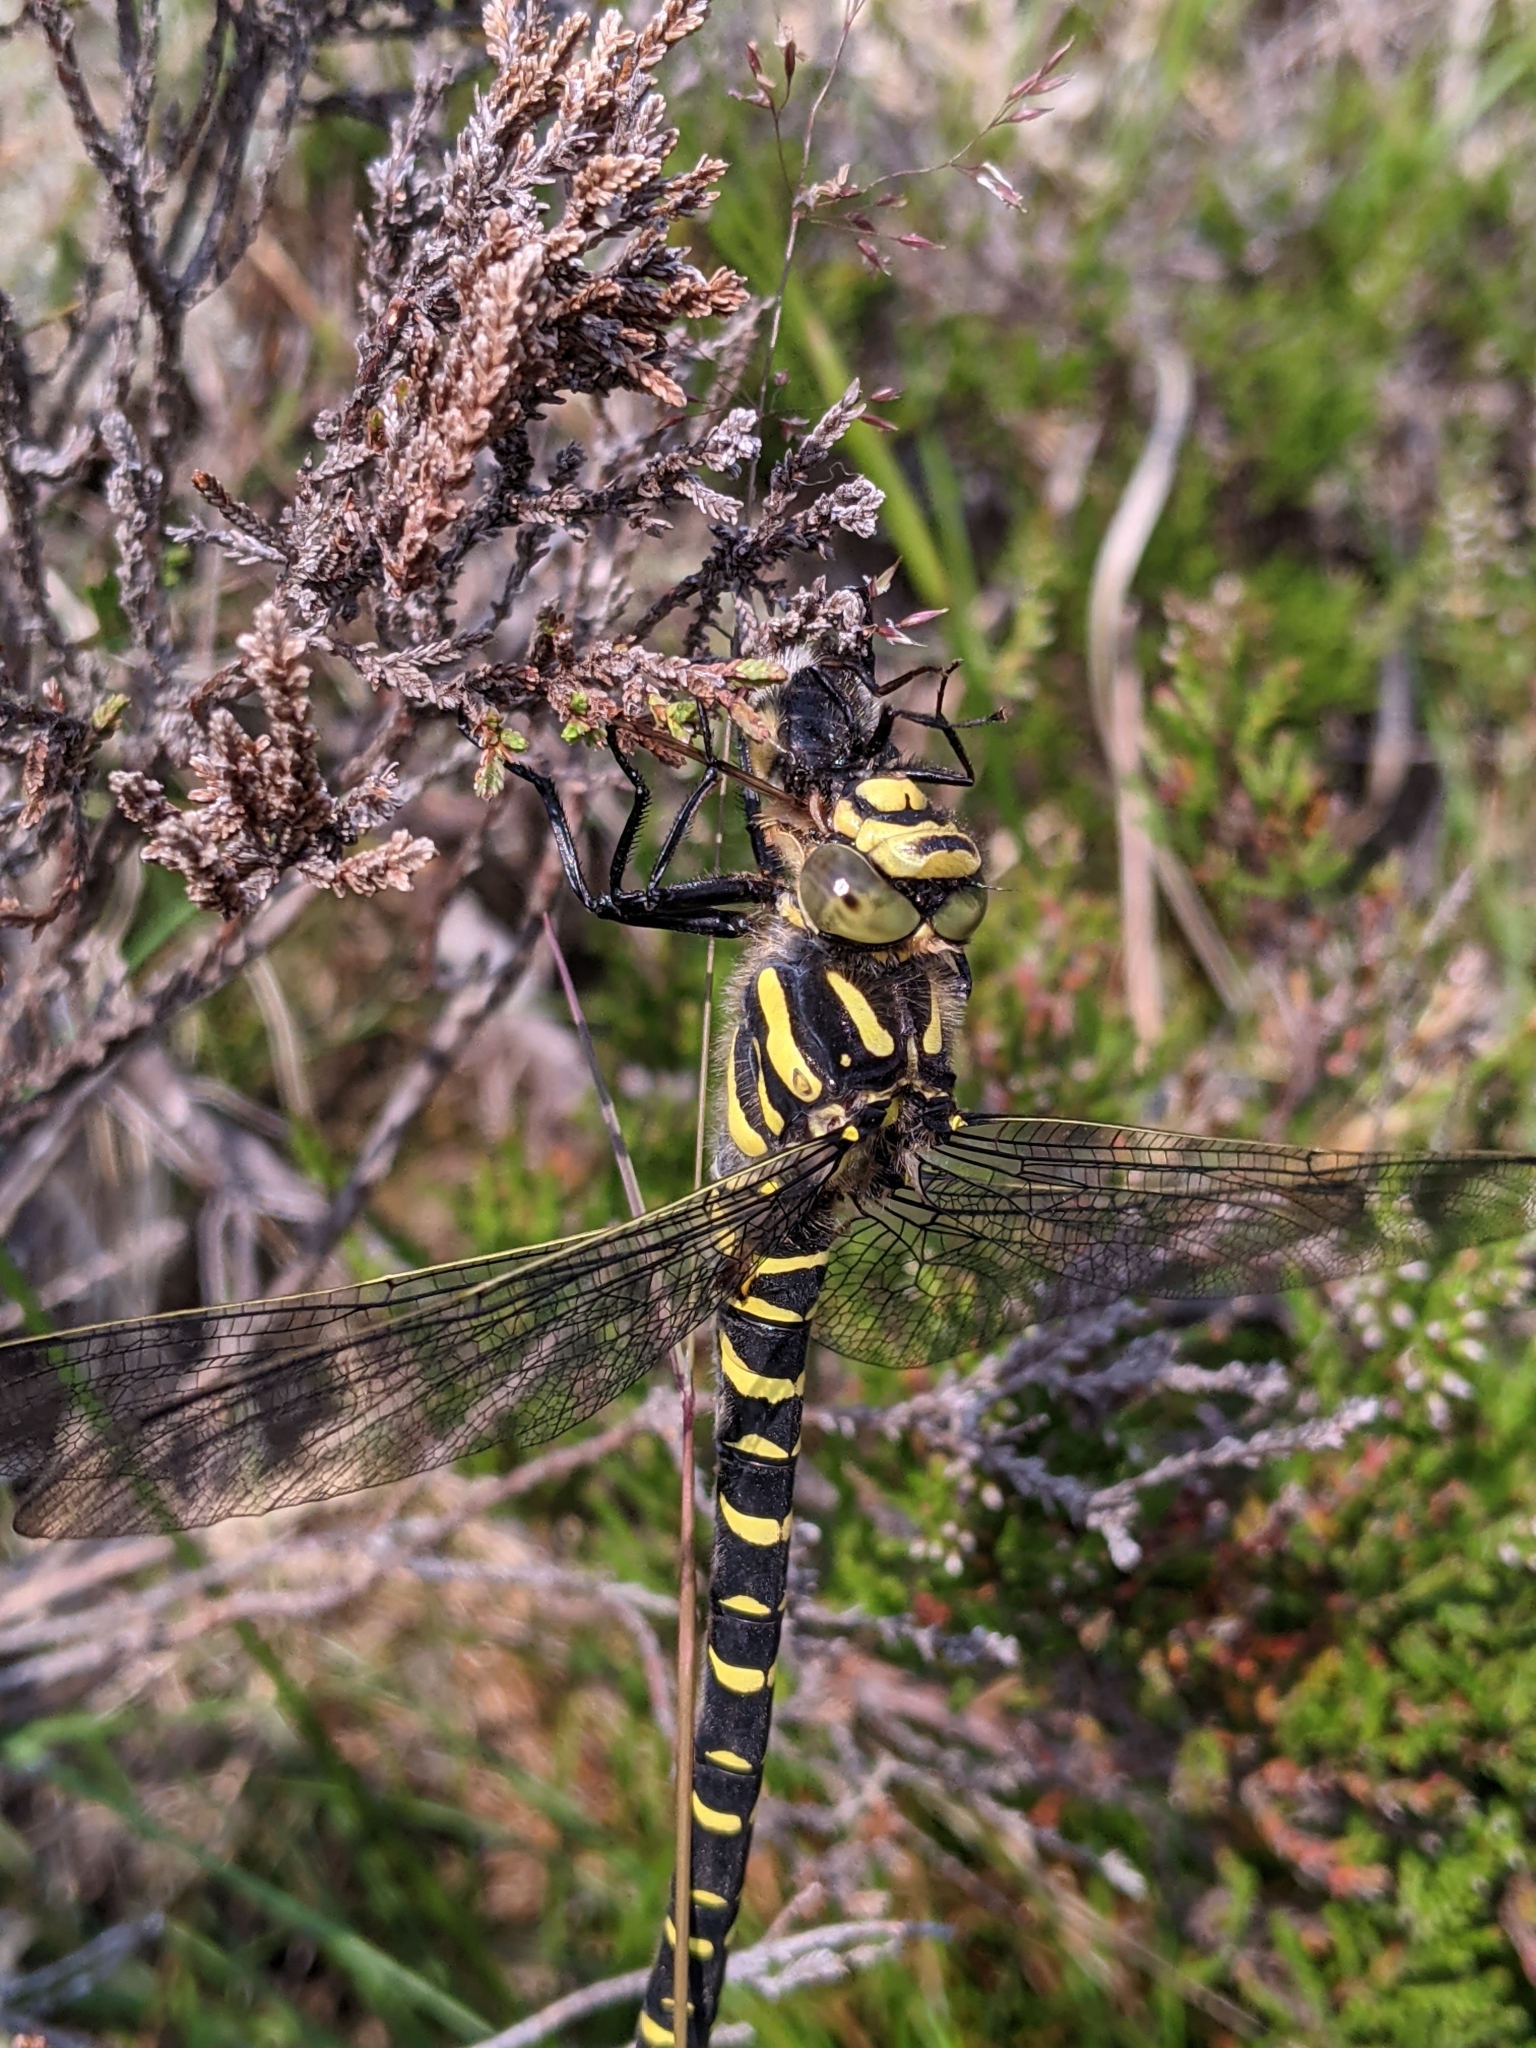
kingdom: Animalia
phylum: Arthropoda
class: Insecta
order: Odonata
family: Cordulegastridae
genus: Cordulegaster
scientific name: Cordulegaster boltonii
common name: Golden-ringed dragonfly
